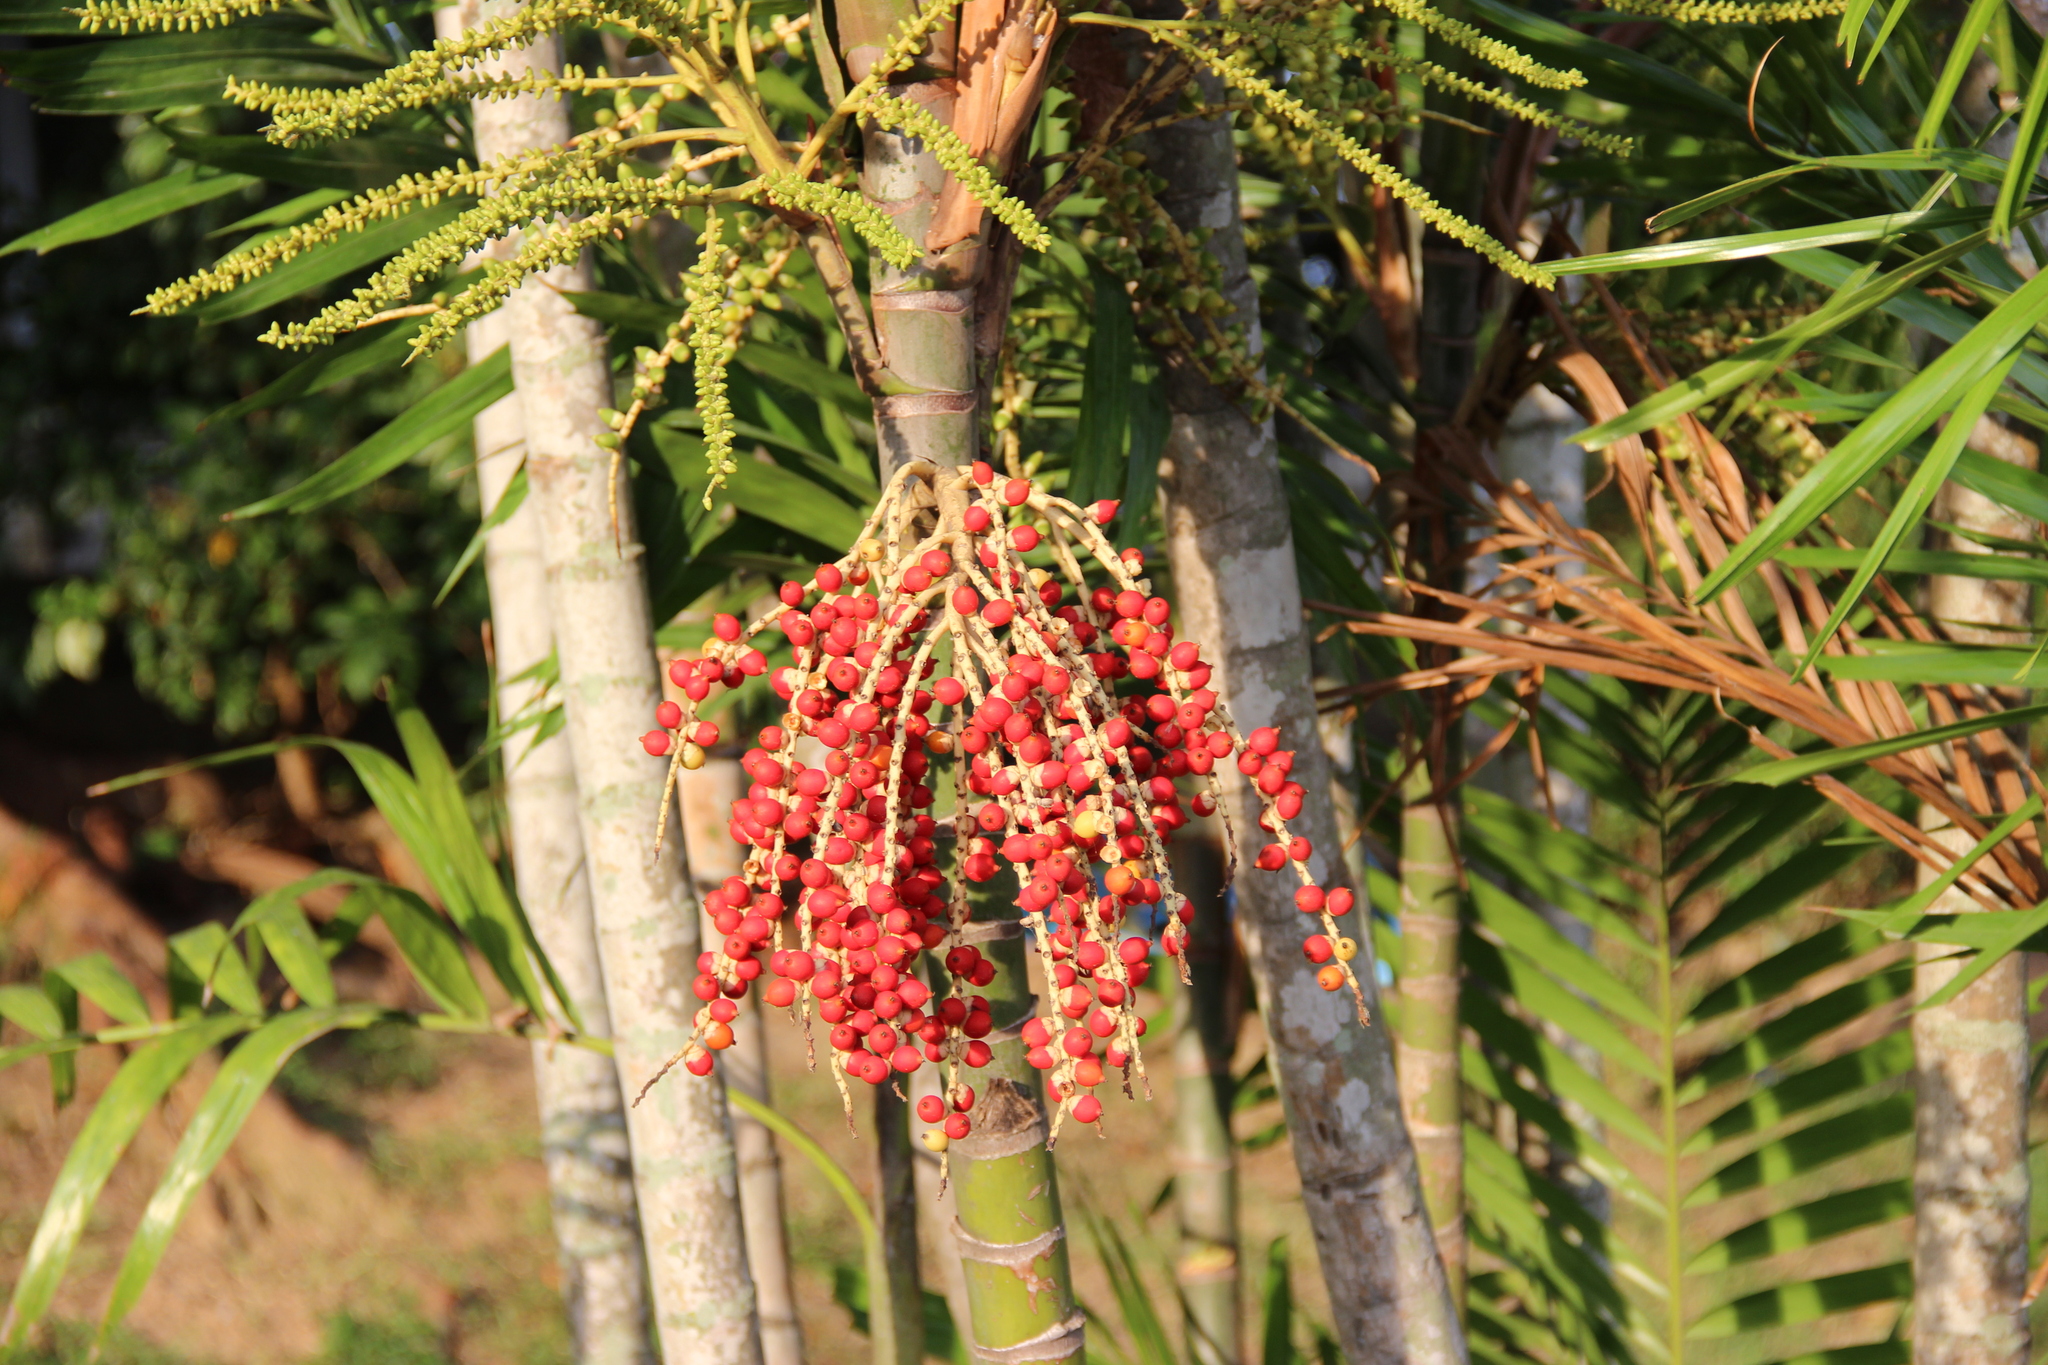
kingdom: Plantae
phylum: Tracheophyta
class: Liliopsida
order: Arecales
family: Arecaceae
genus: Ptychosperma
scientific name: Ptychosperma macarthurii
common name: Macarthur palm
